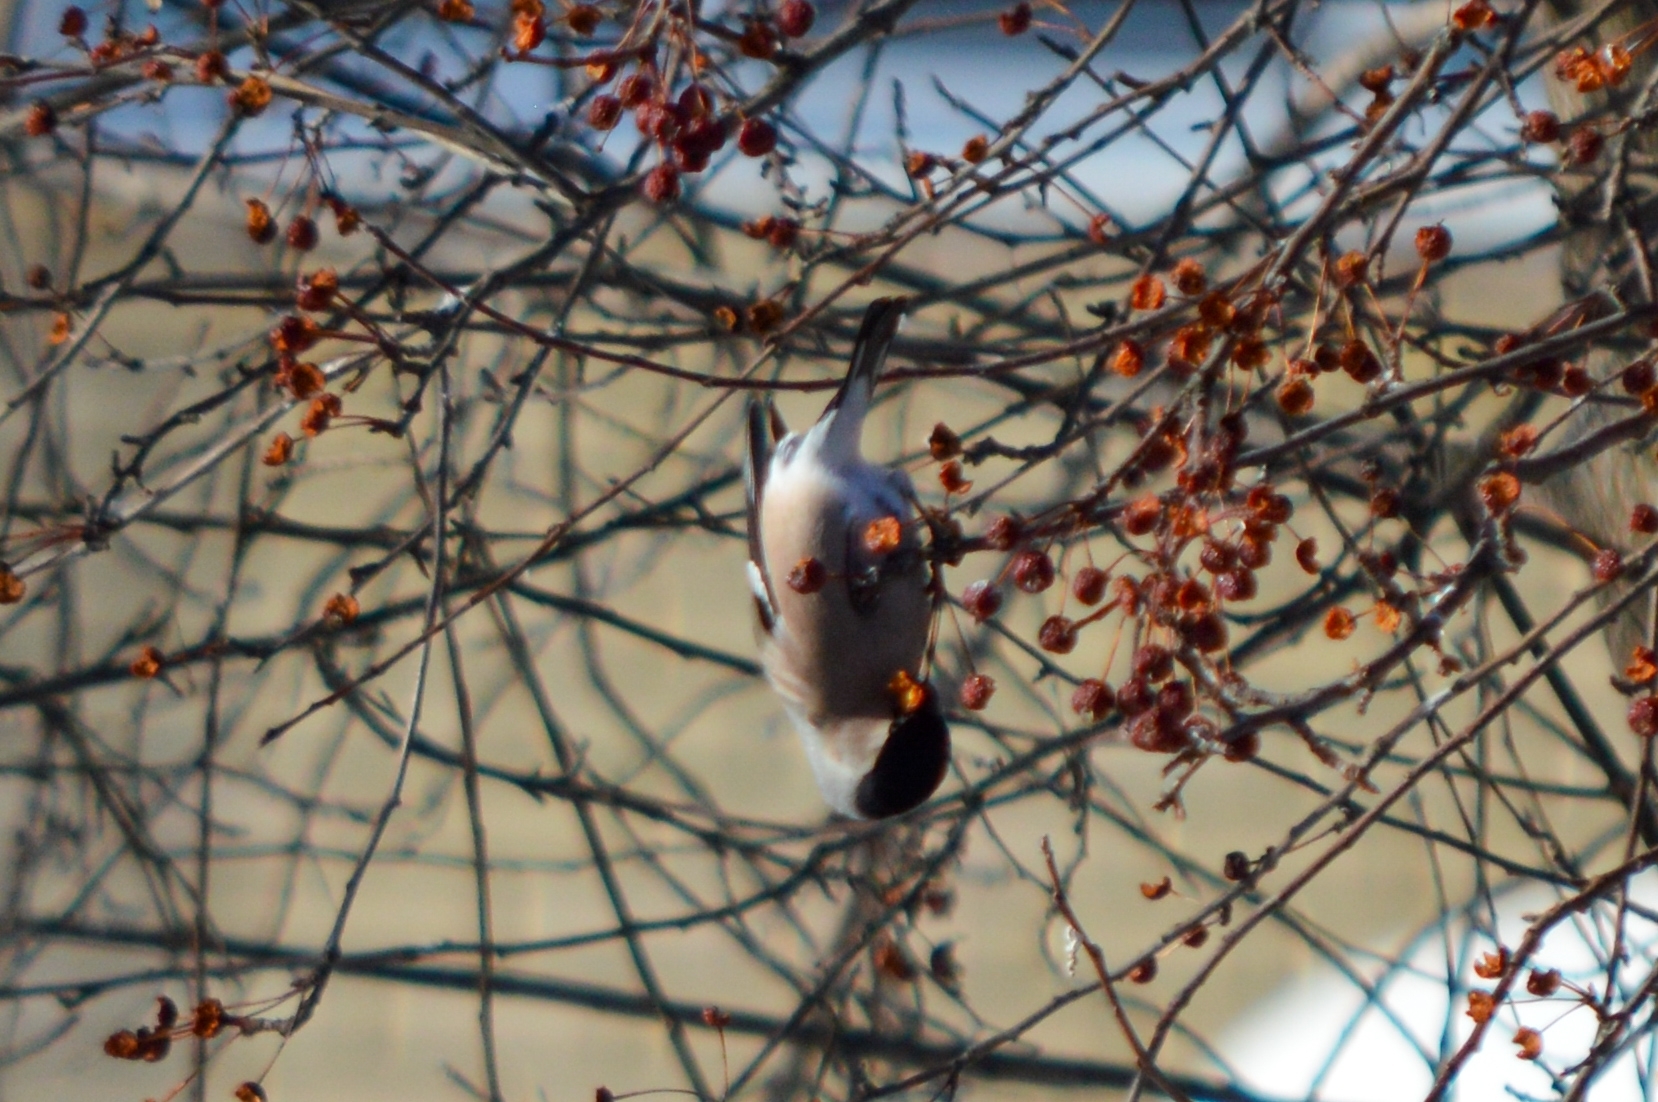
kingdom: Animalia
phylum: Chordata
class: Aves
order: Passeriformes
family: Fringillidae
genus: Pyrrhula
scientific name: Pyrrhula pyrrhula
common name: Eurasian bullfinch
